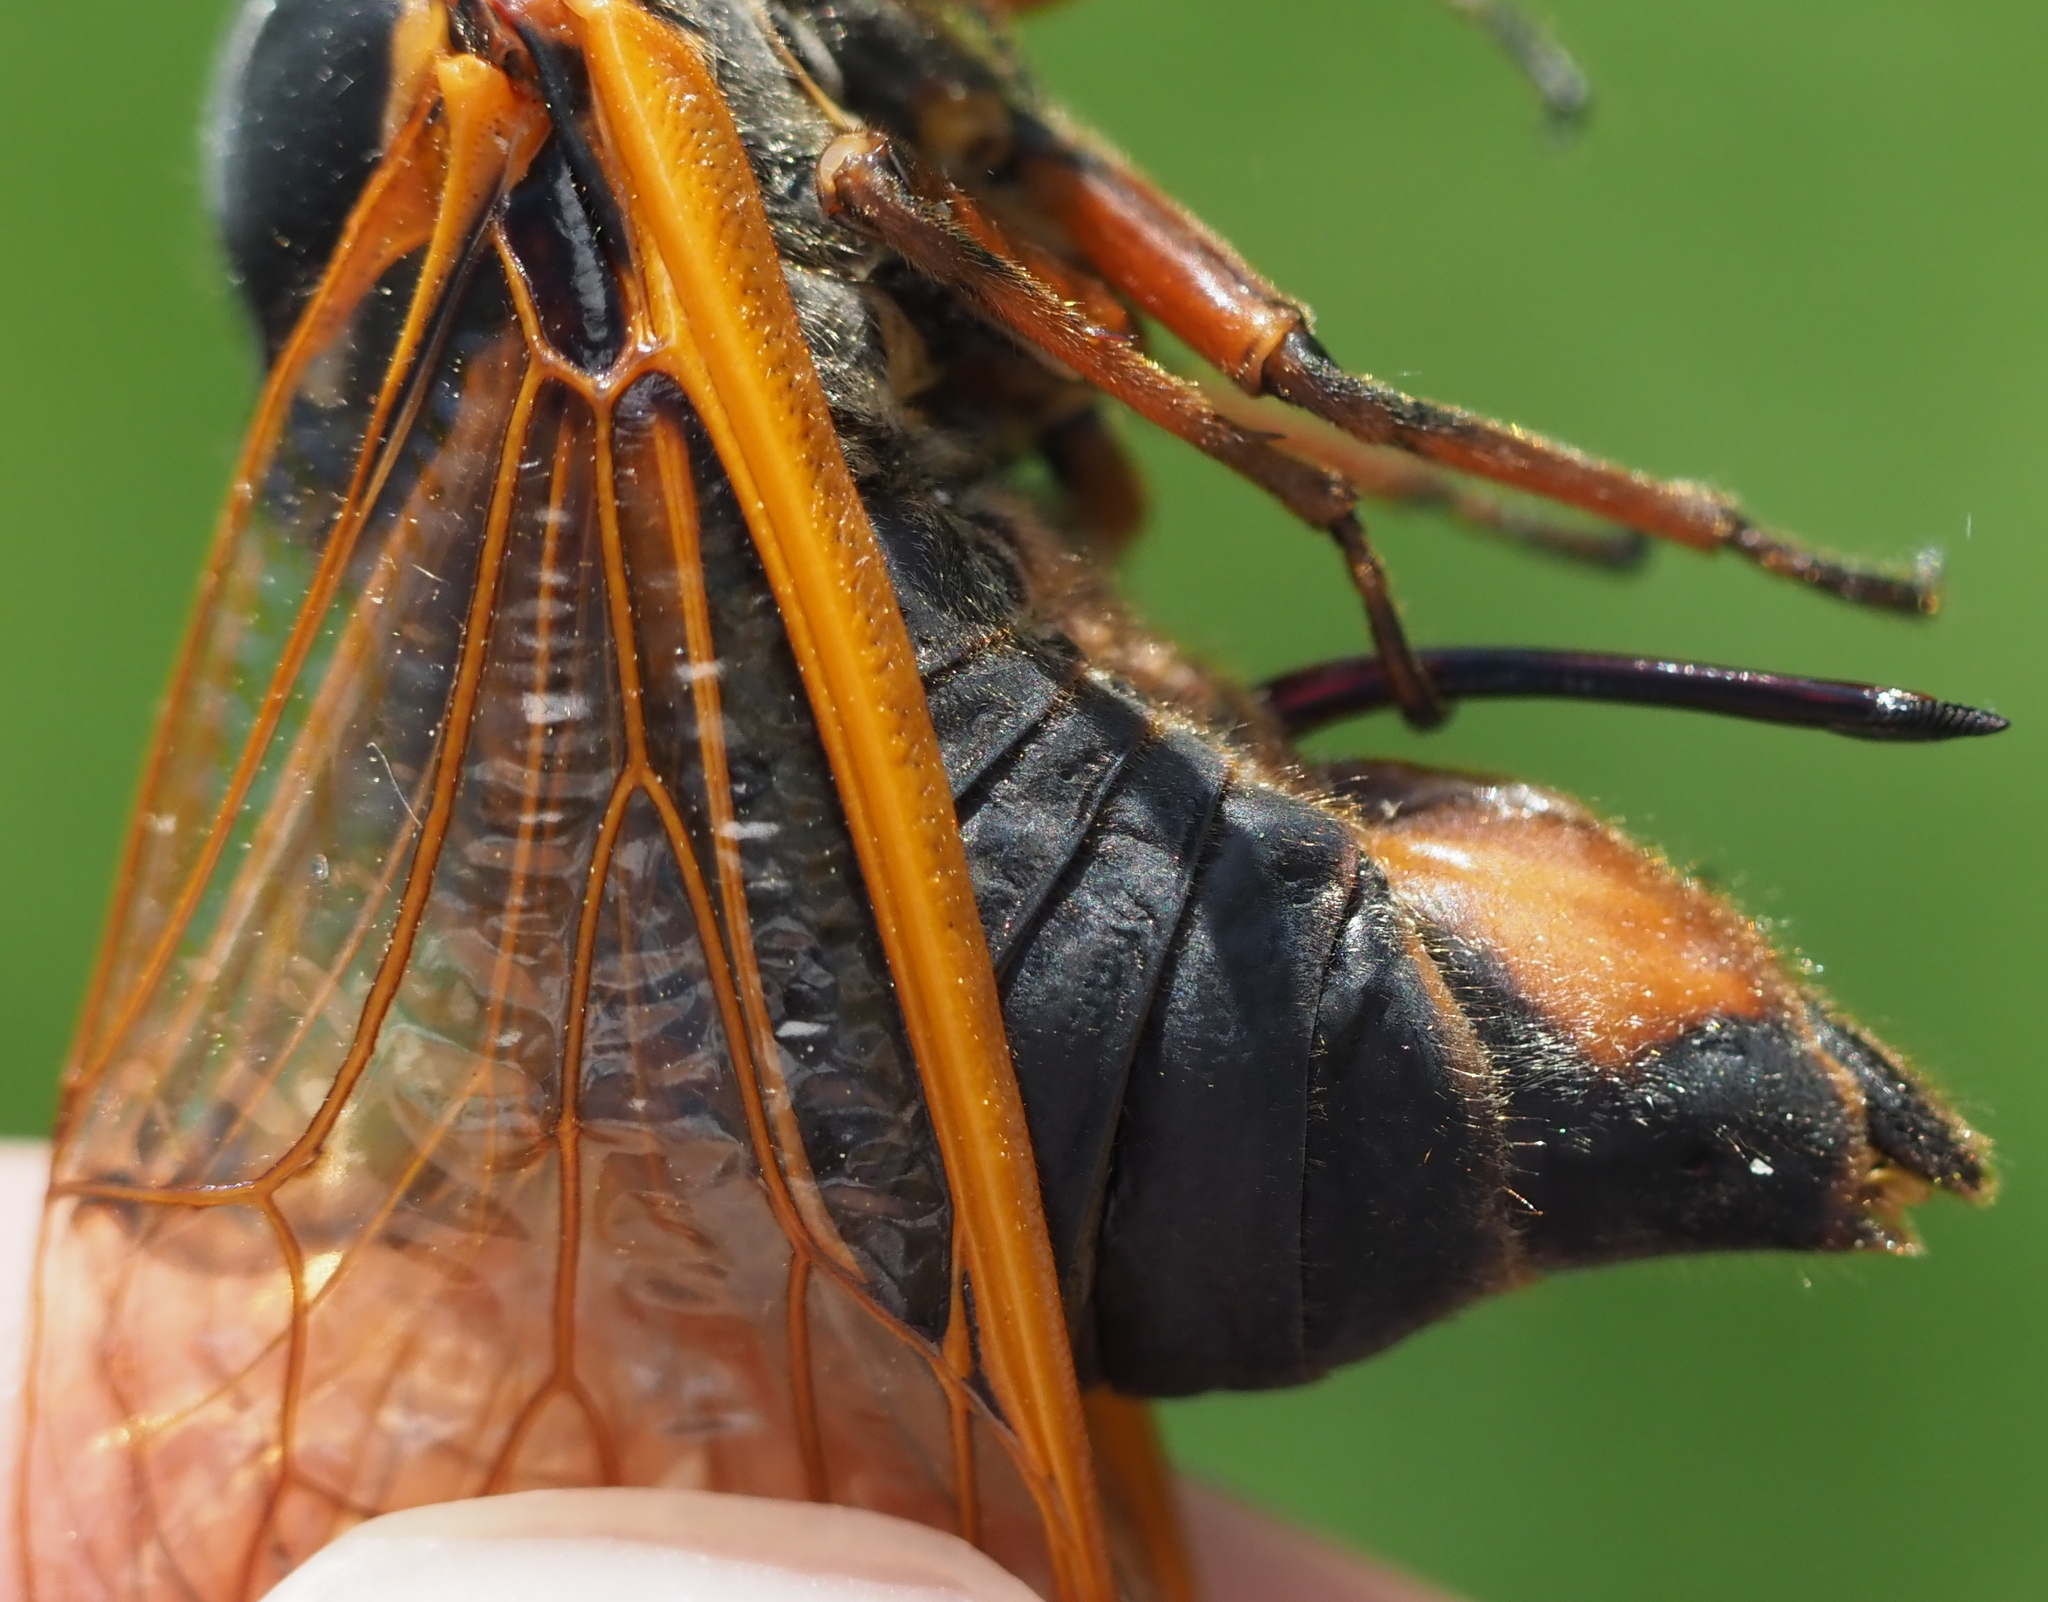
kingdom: Animalia
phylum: Arthropoda
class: Insecta
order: Hemiptera
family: Cicadidae
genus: Magicicada
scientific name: Magicicada septendecim
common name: Periodical cicada
